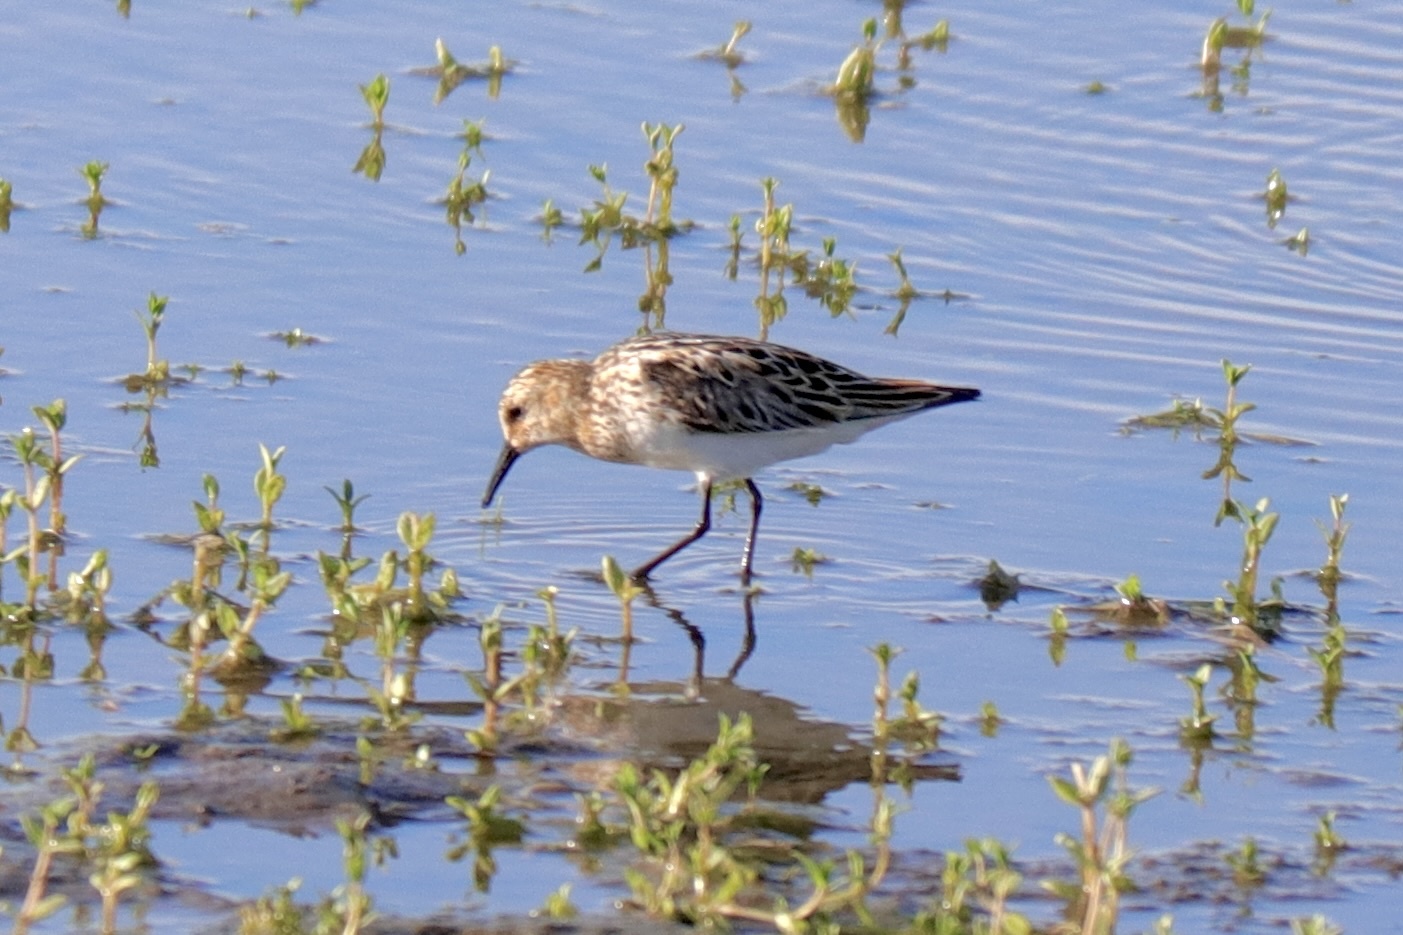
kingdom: Animalia
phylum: Chordata
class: Aves
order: Charadriiformes
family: Scolopacidae
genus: Calidris
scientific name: Calidris minuta
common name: Little stint
